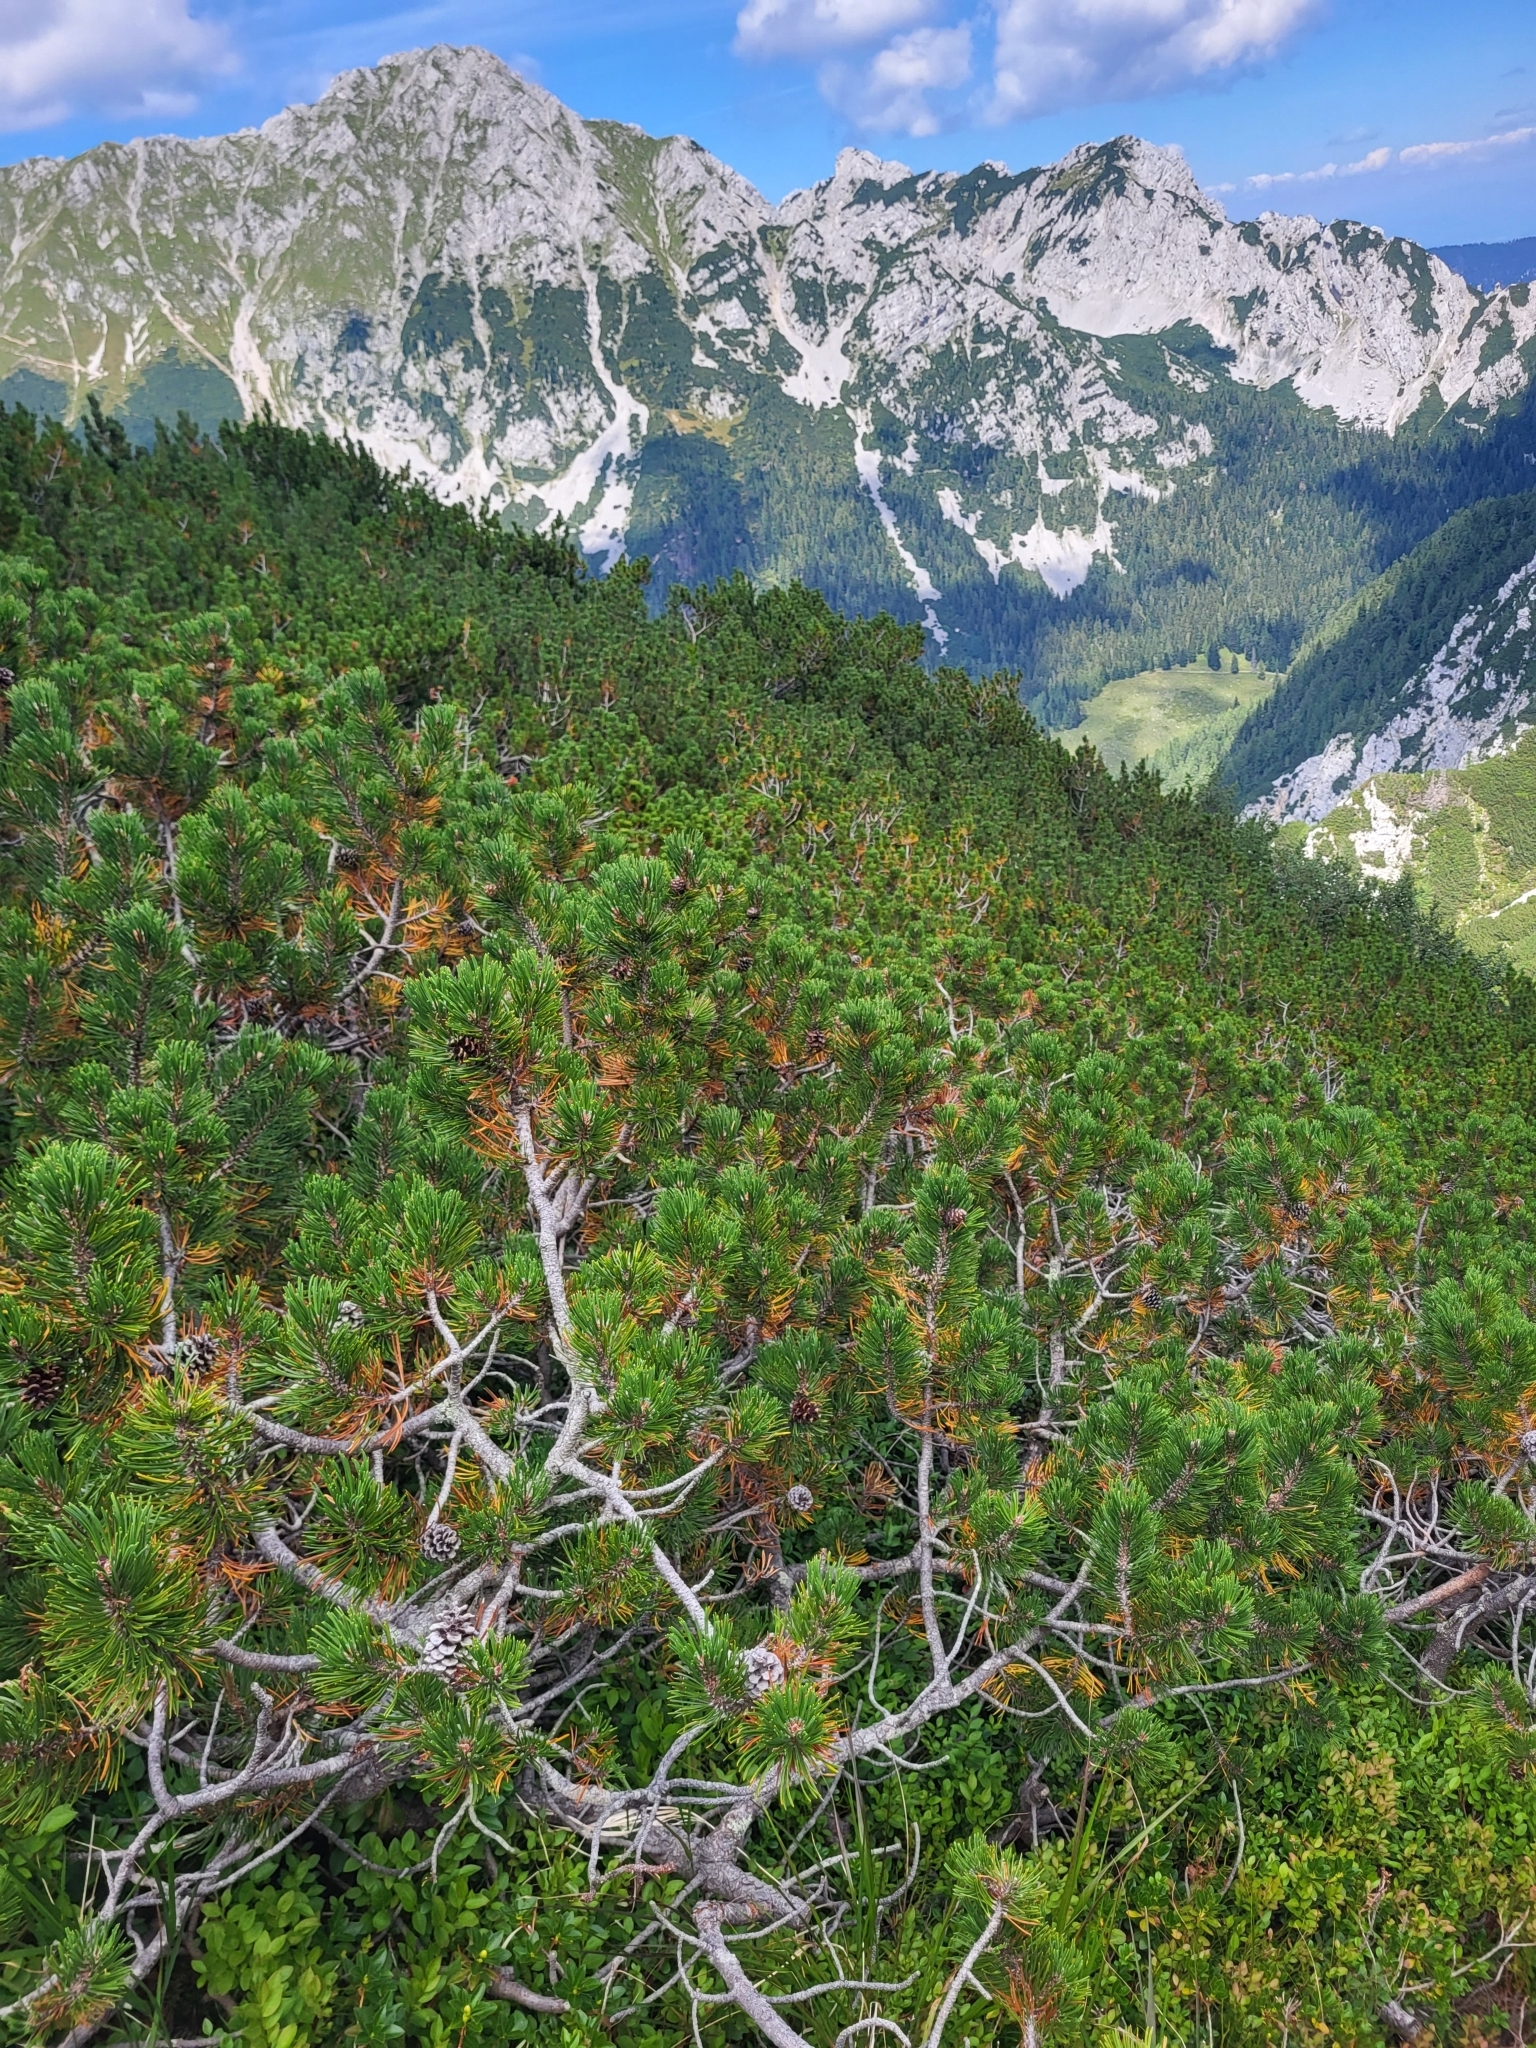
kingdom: Plantae
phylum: Tracheophyta
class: Pinopsida
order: Pinales
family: Pinaceae
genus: Pinus
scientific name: Pinus mugo
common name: Mugo pine
